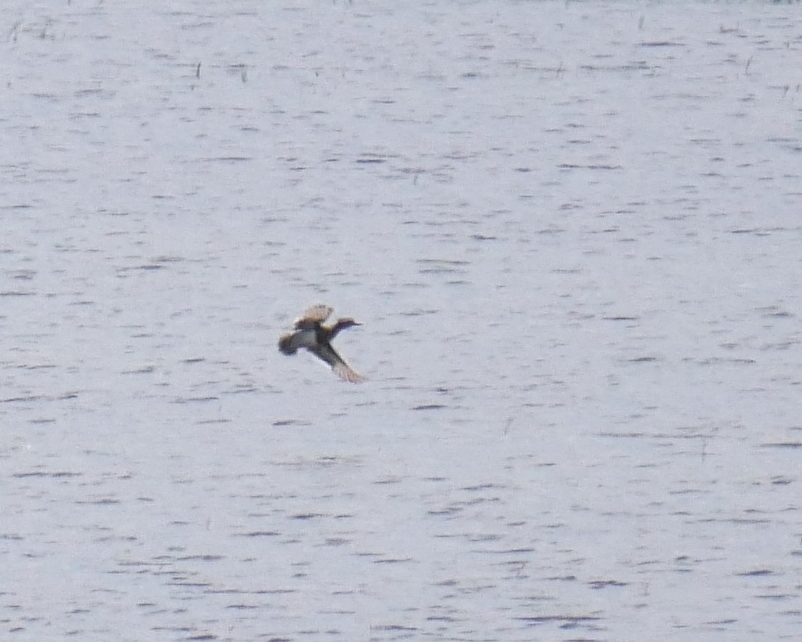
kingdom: Animalia
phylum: Chordata
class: Aves
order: Anseriformes
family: Anatidae
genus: Spatula
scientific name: Spatula querquedula
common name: Garganey
